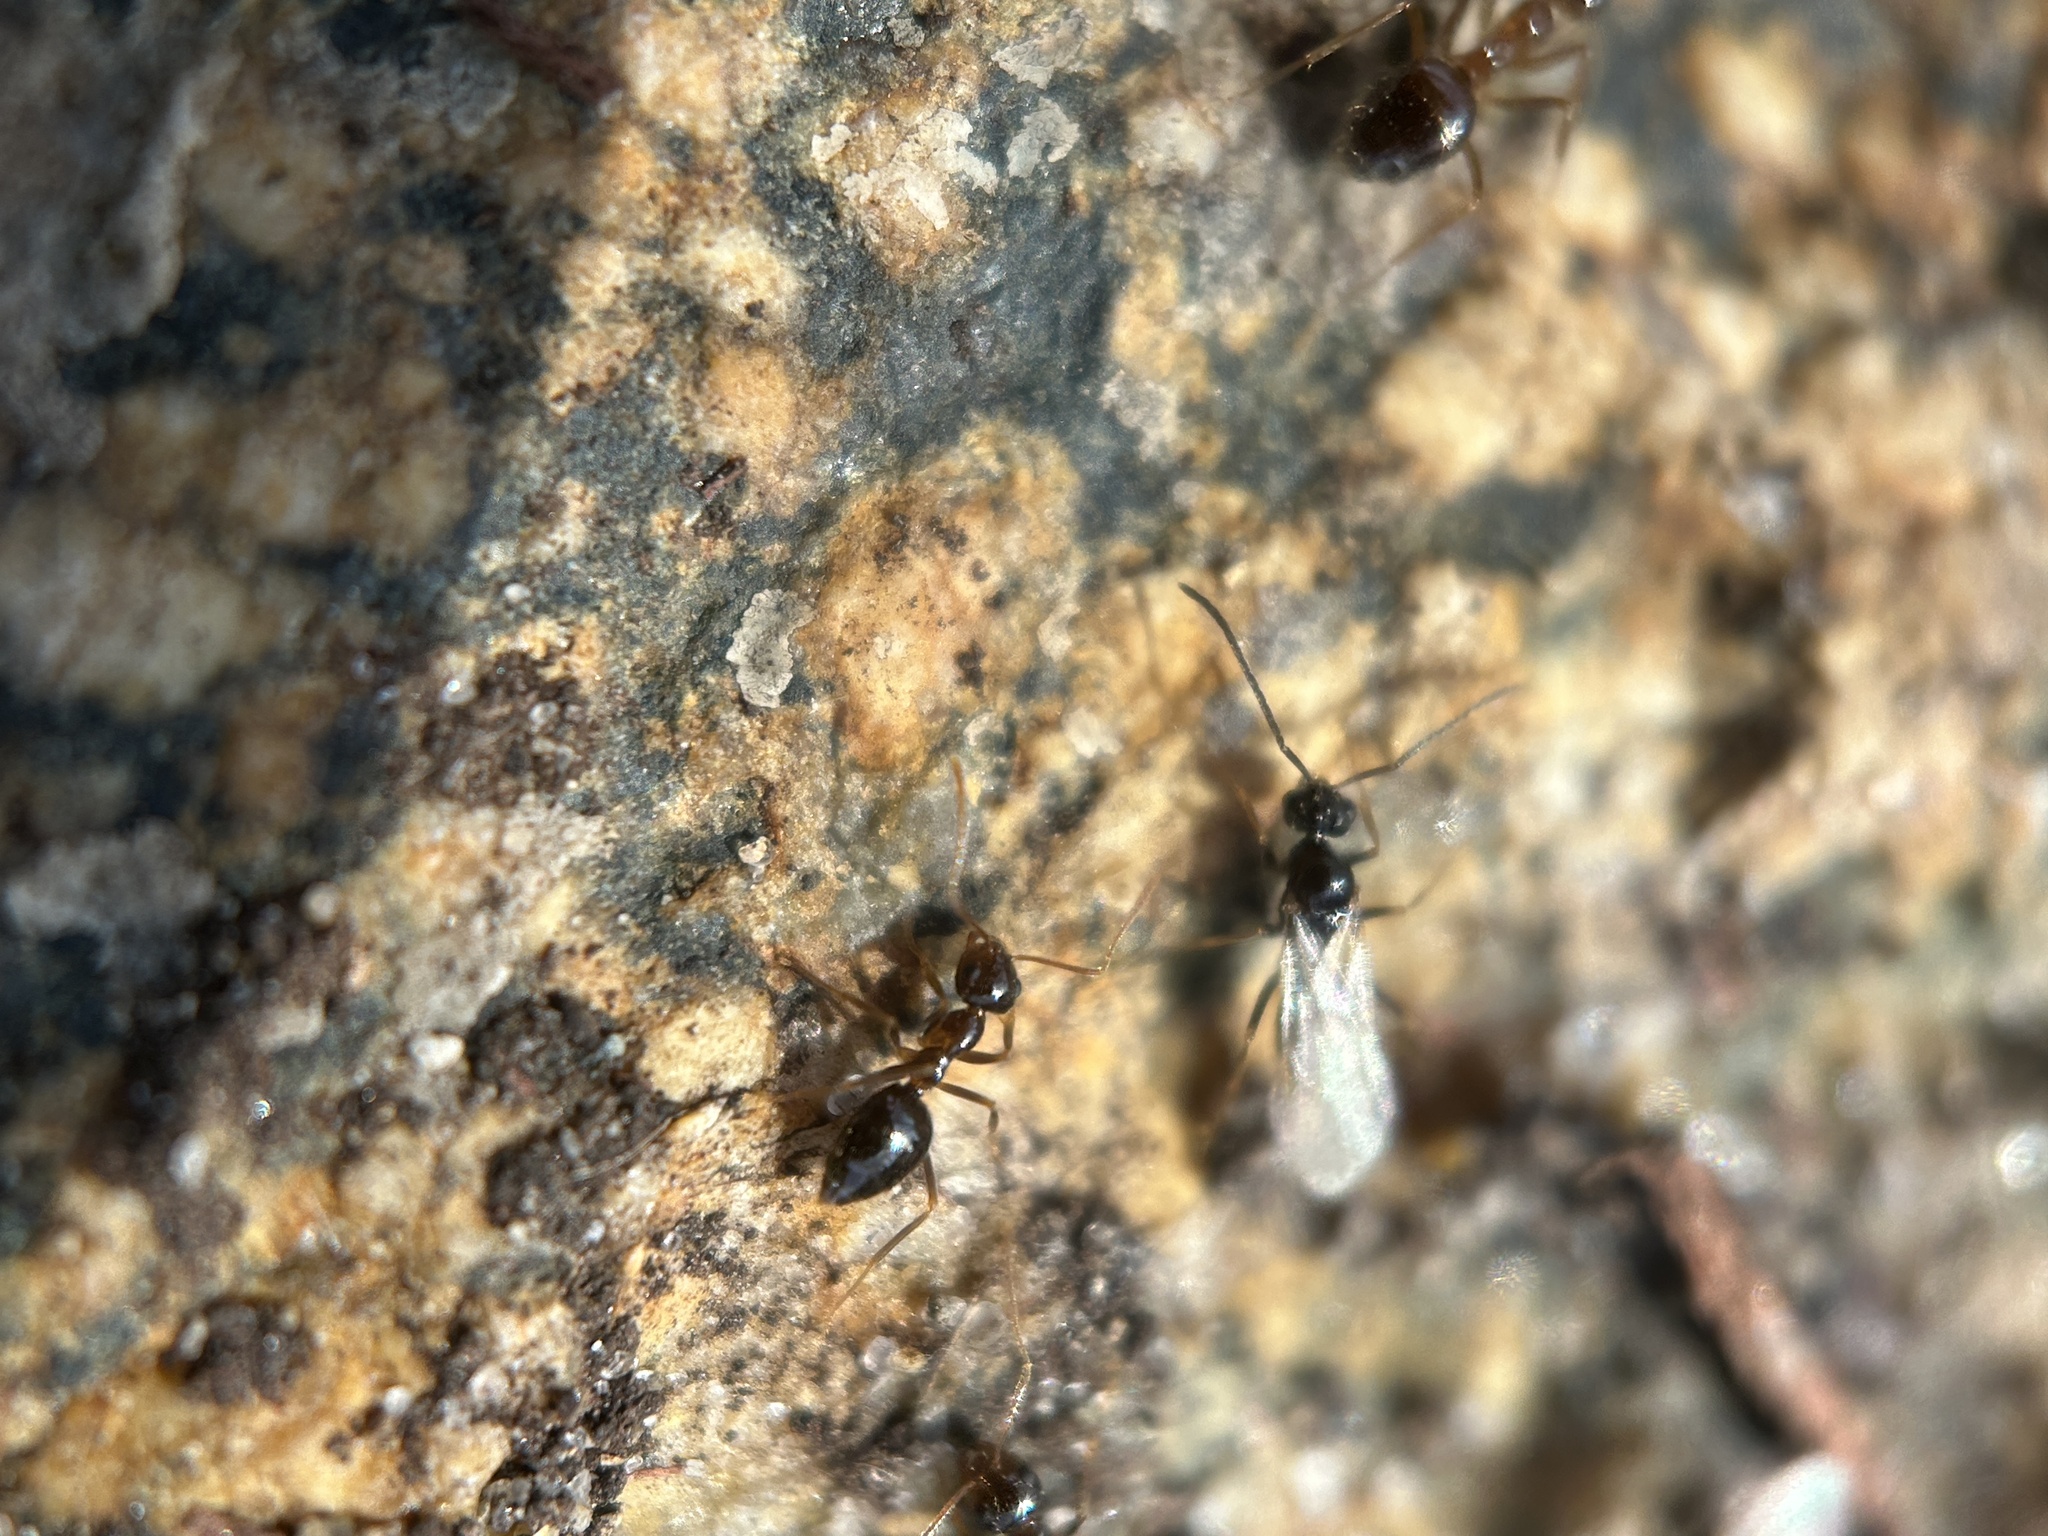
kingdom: Animalia
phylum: Arthropoda
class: Insecta
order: Hymenoptera
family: Formicidae
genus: Prenolepis
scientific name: Prenolepis imparis
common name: Small honey ant
